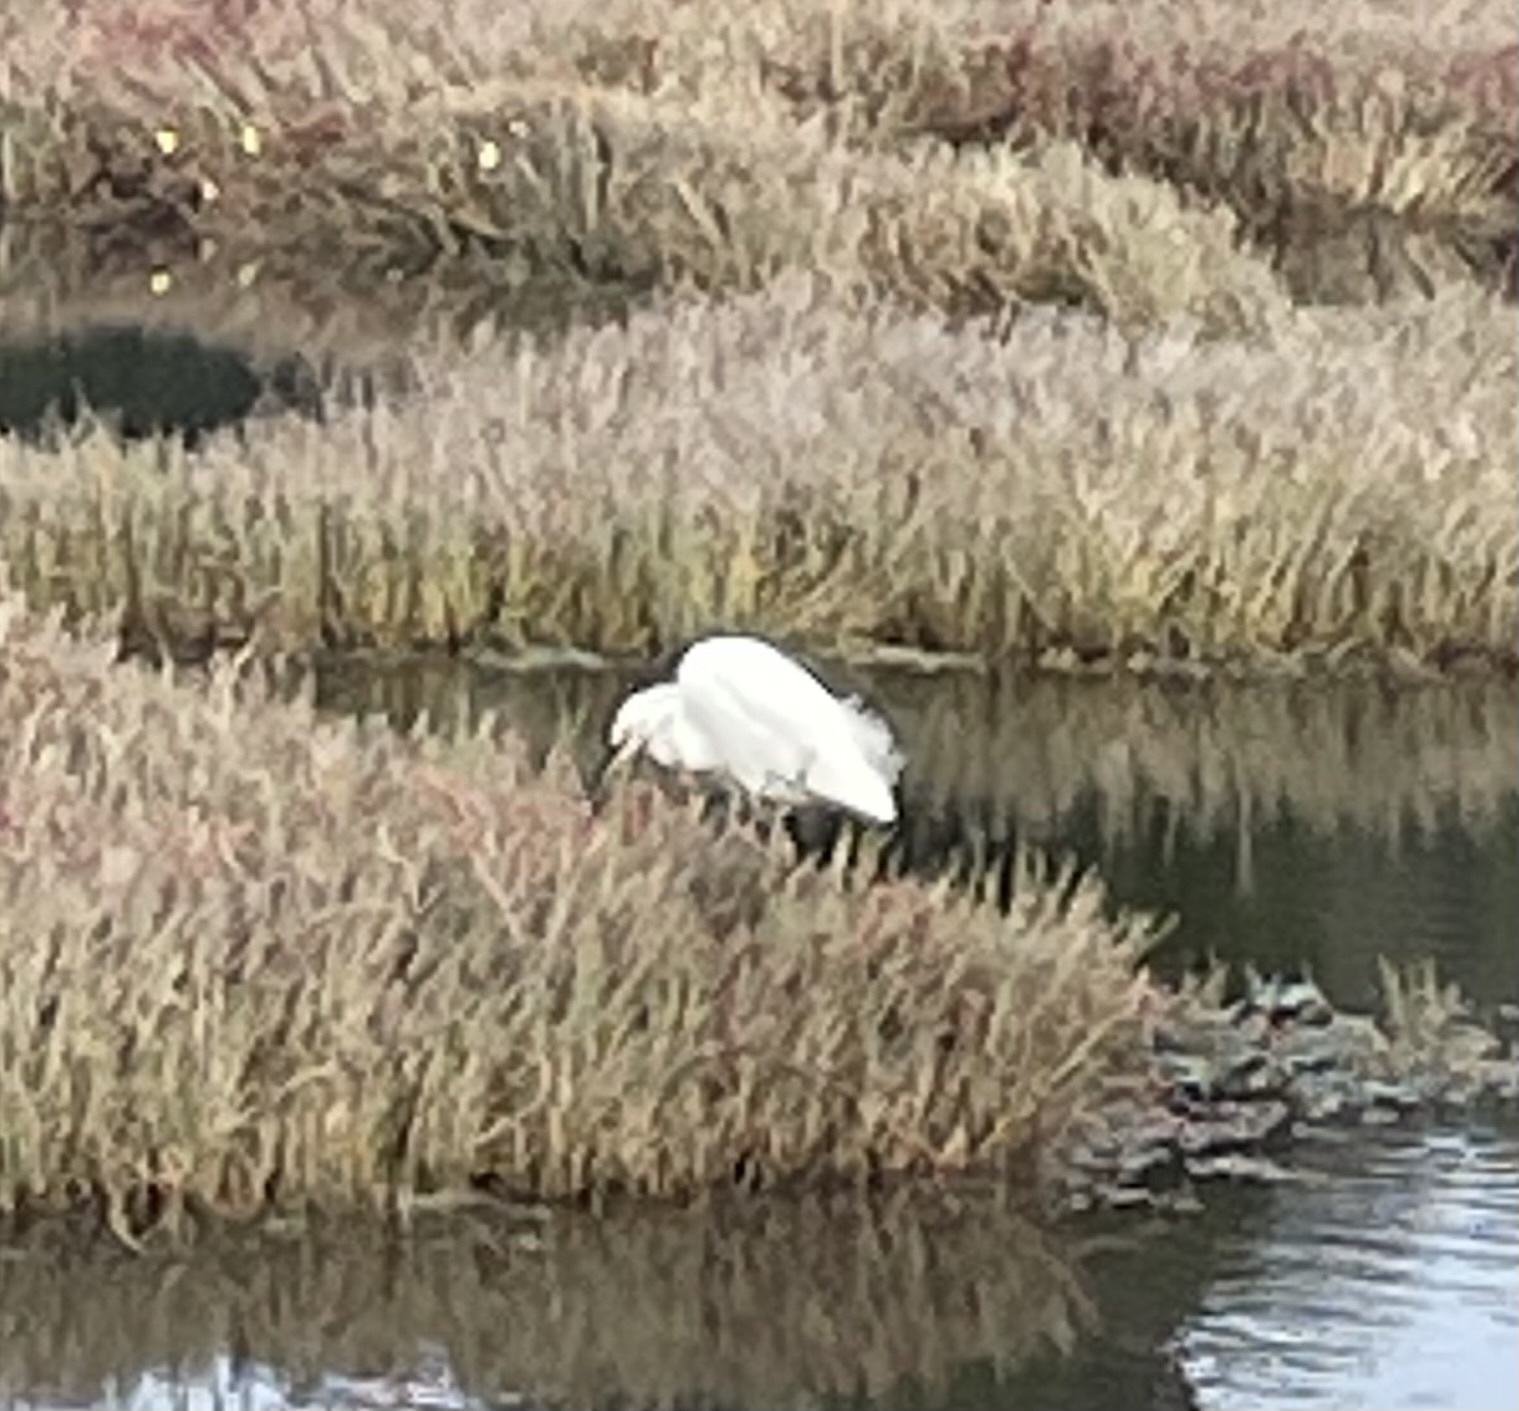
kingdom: Animalia
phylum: Chordata
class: Aves
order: Pelecaniformes
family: Ardeidae
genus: Egretta
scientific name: Egretta thula
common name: Snowy egret
